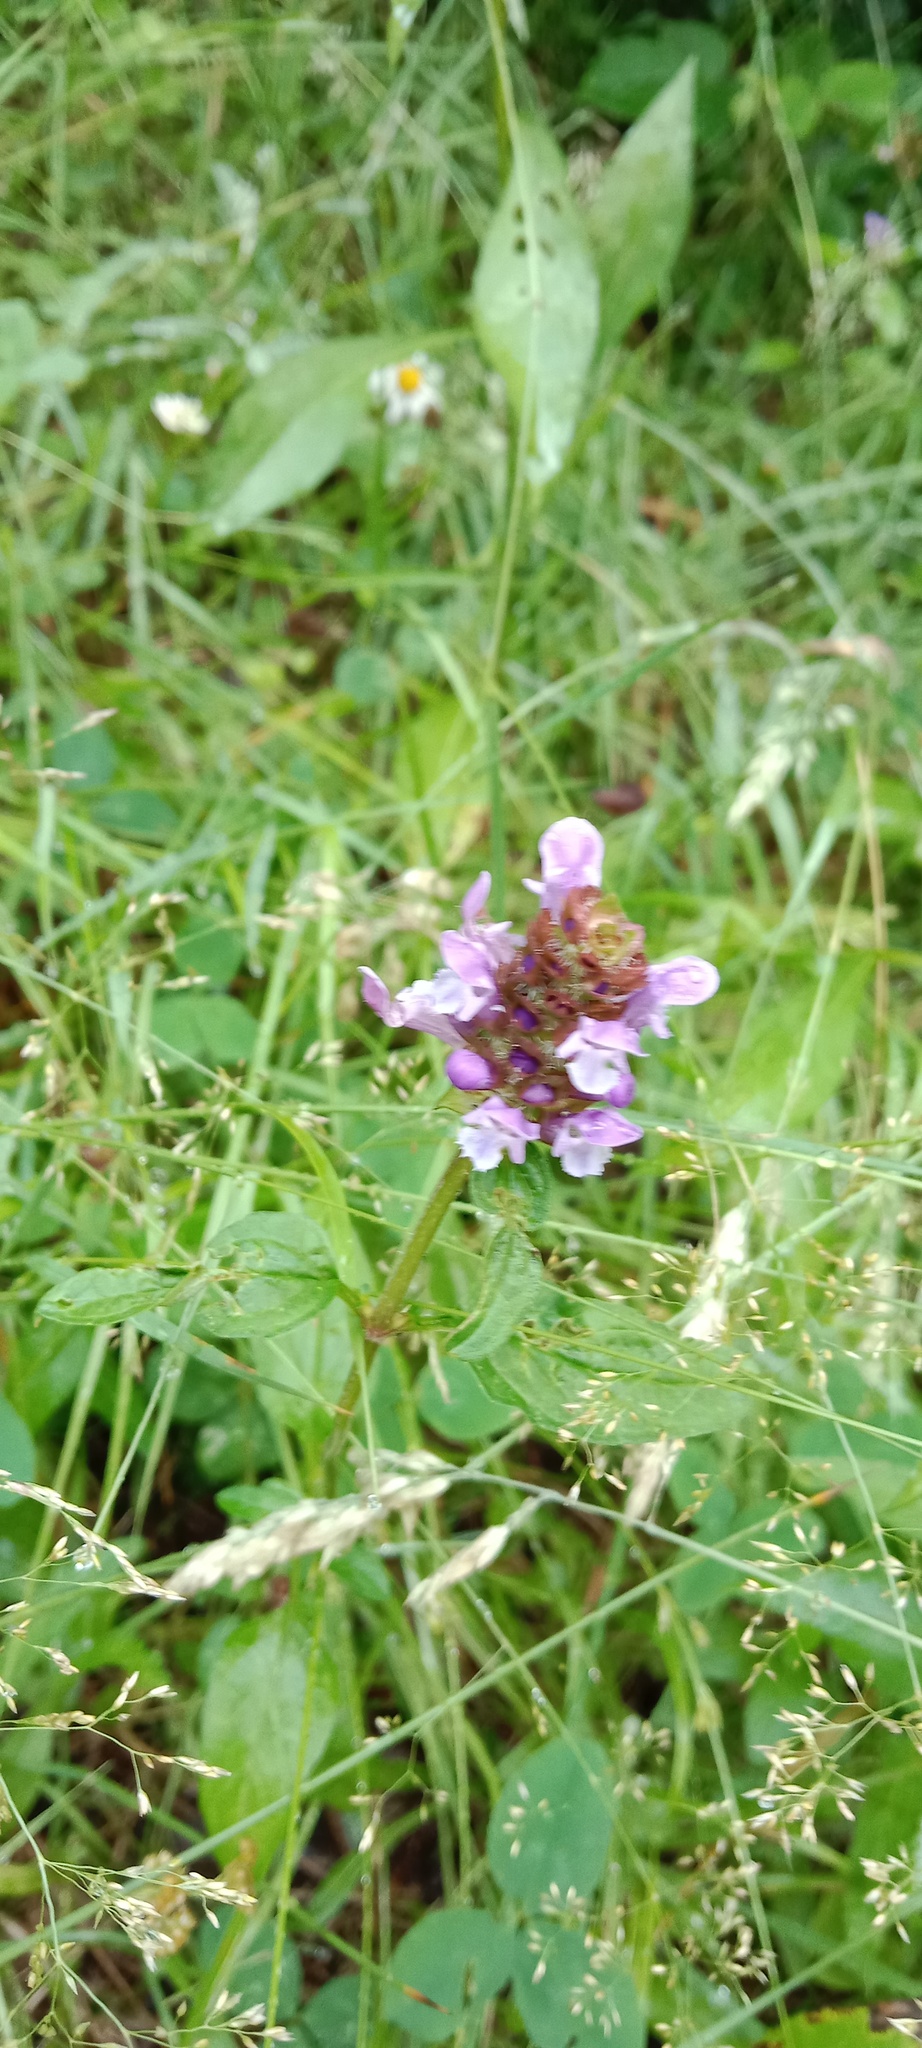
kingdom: Plantae
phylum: Tracheophyta
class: Magnoliopsida
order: Lamiales
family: Lamiaceae
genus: Prunella
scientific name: Prunella vulgaris
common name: Heal-all
